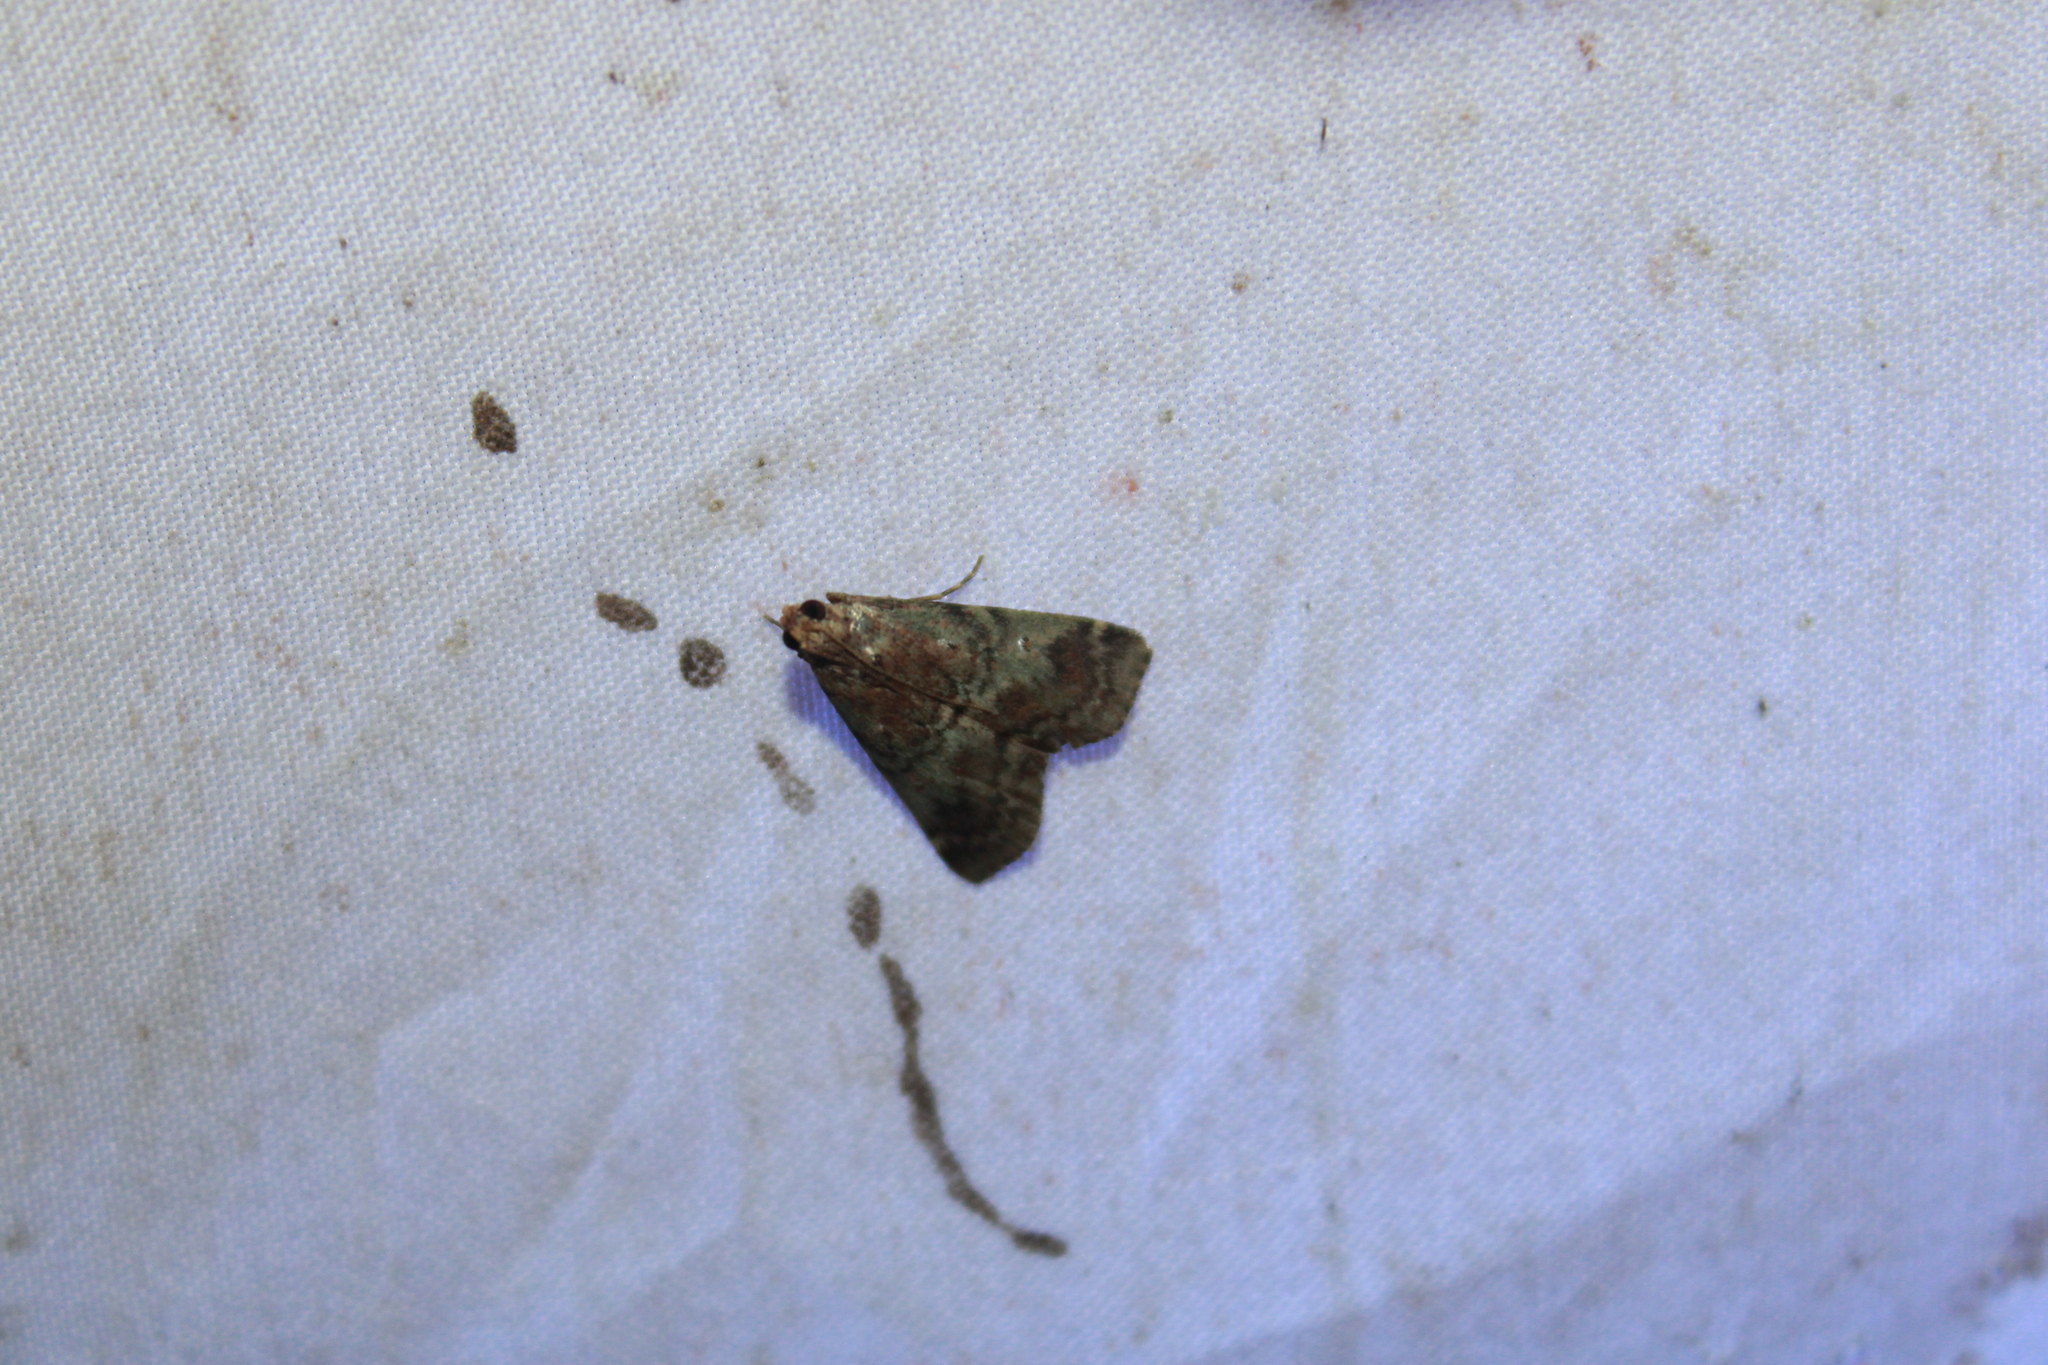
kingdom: Animalia
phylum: Arthropoda
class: Insecta
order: Lepidoptera
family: Pyralidae
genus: Deuterollyta
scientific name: Deuterollyta majuscula
